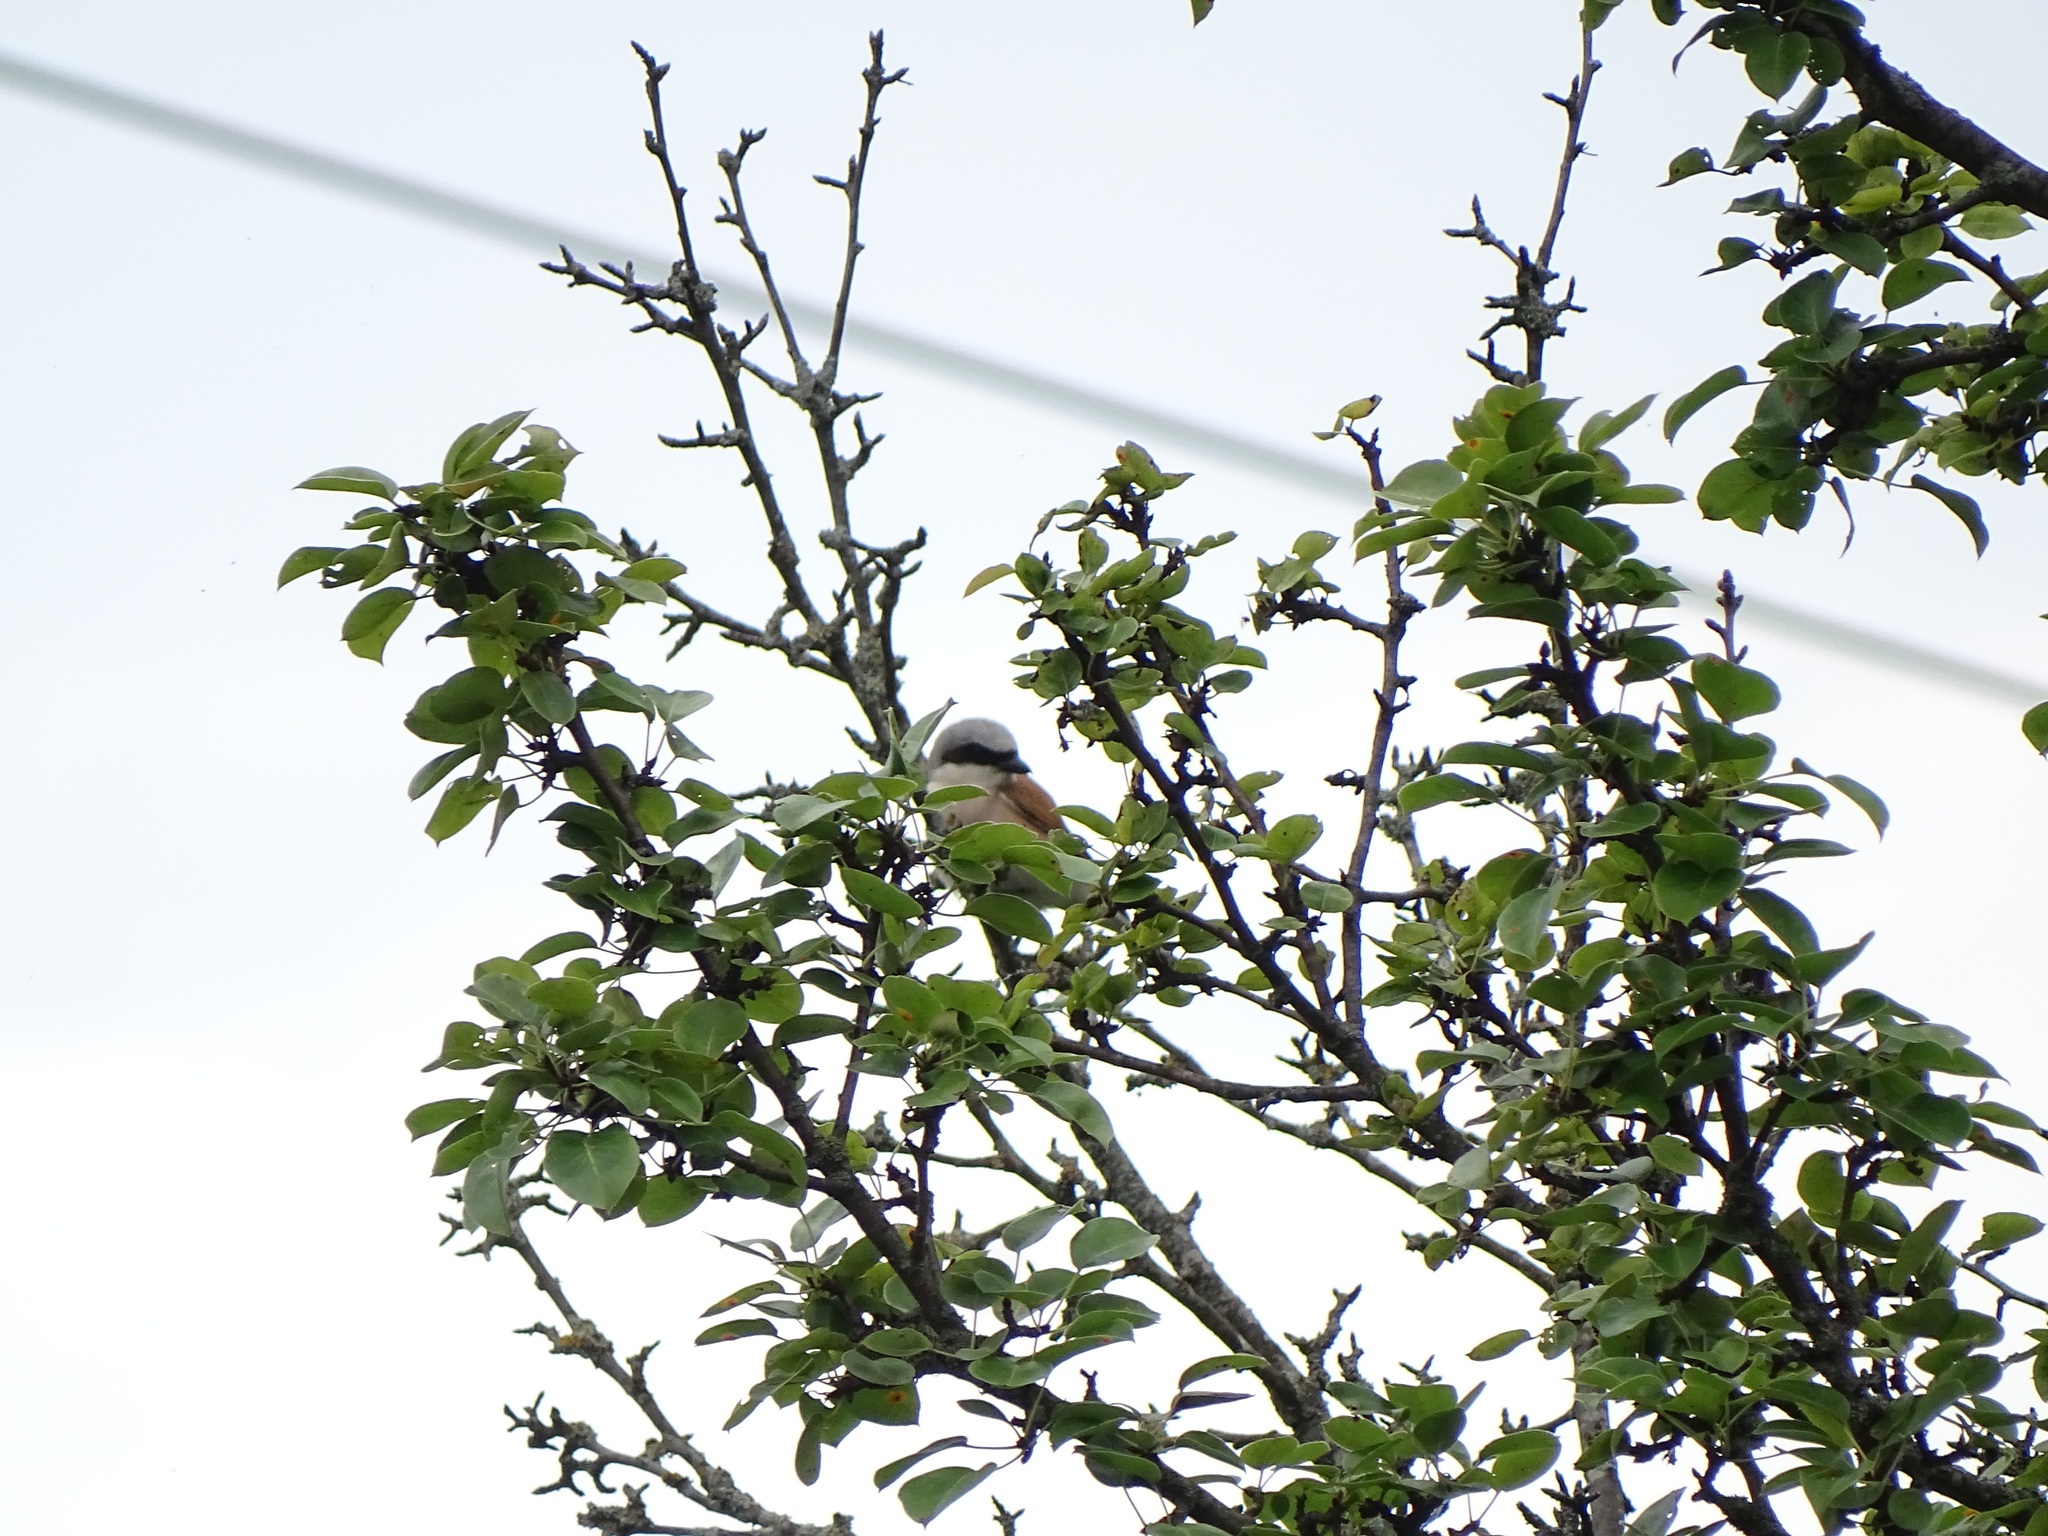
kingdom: Animalia
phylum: Chordata
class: Aves
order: Passeriformes
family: Laniidae
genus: Lanius
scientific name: Lanius collurio
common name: Red-backed shrike
